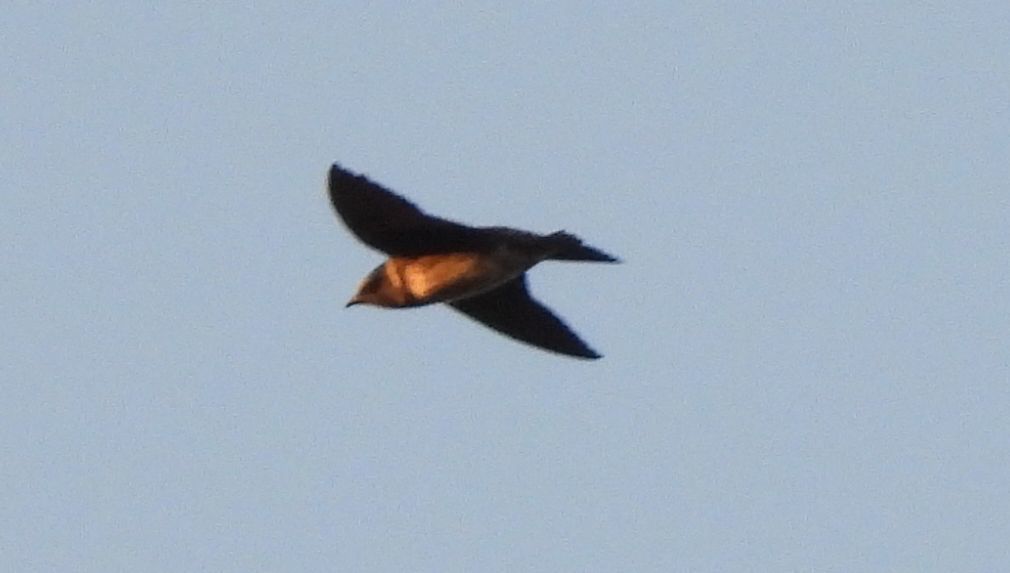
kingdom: Animalia
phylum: Chordata
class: Aves
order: Passeriformes
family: Hirundinidae
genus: Petrochelidon
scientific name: Petrochelidon pyrrhonota
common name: American cliff swallow
